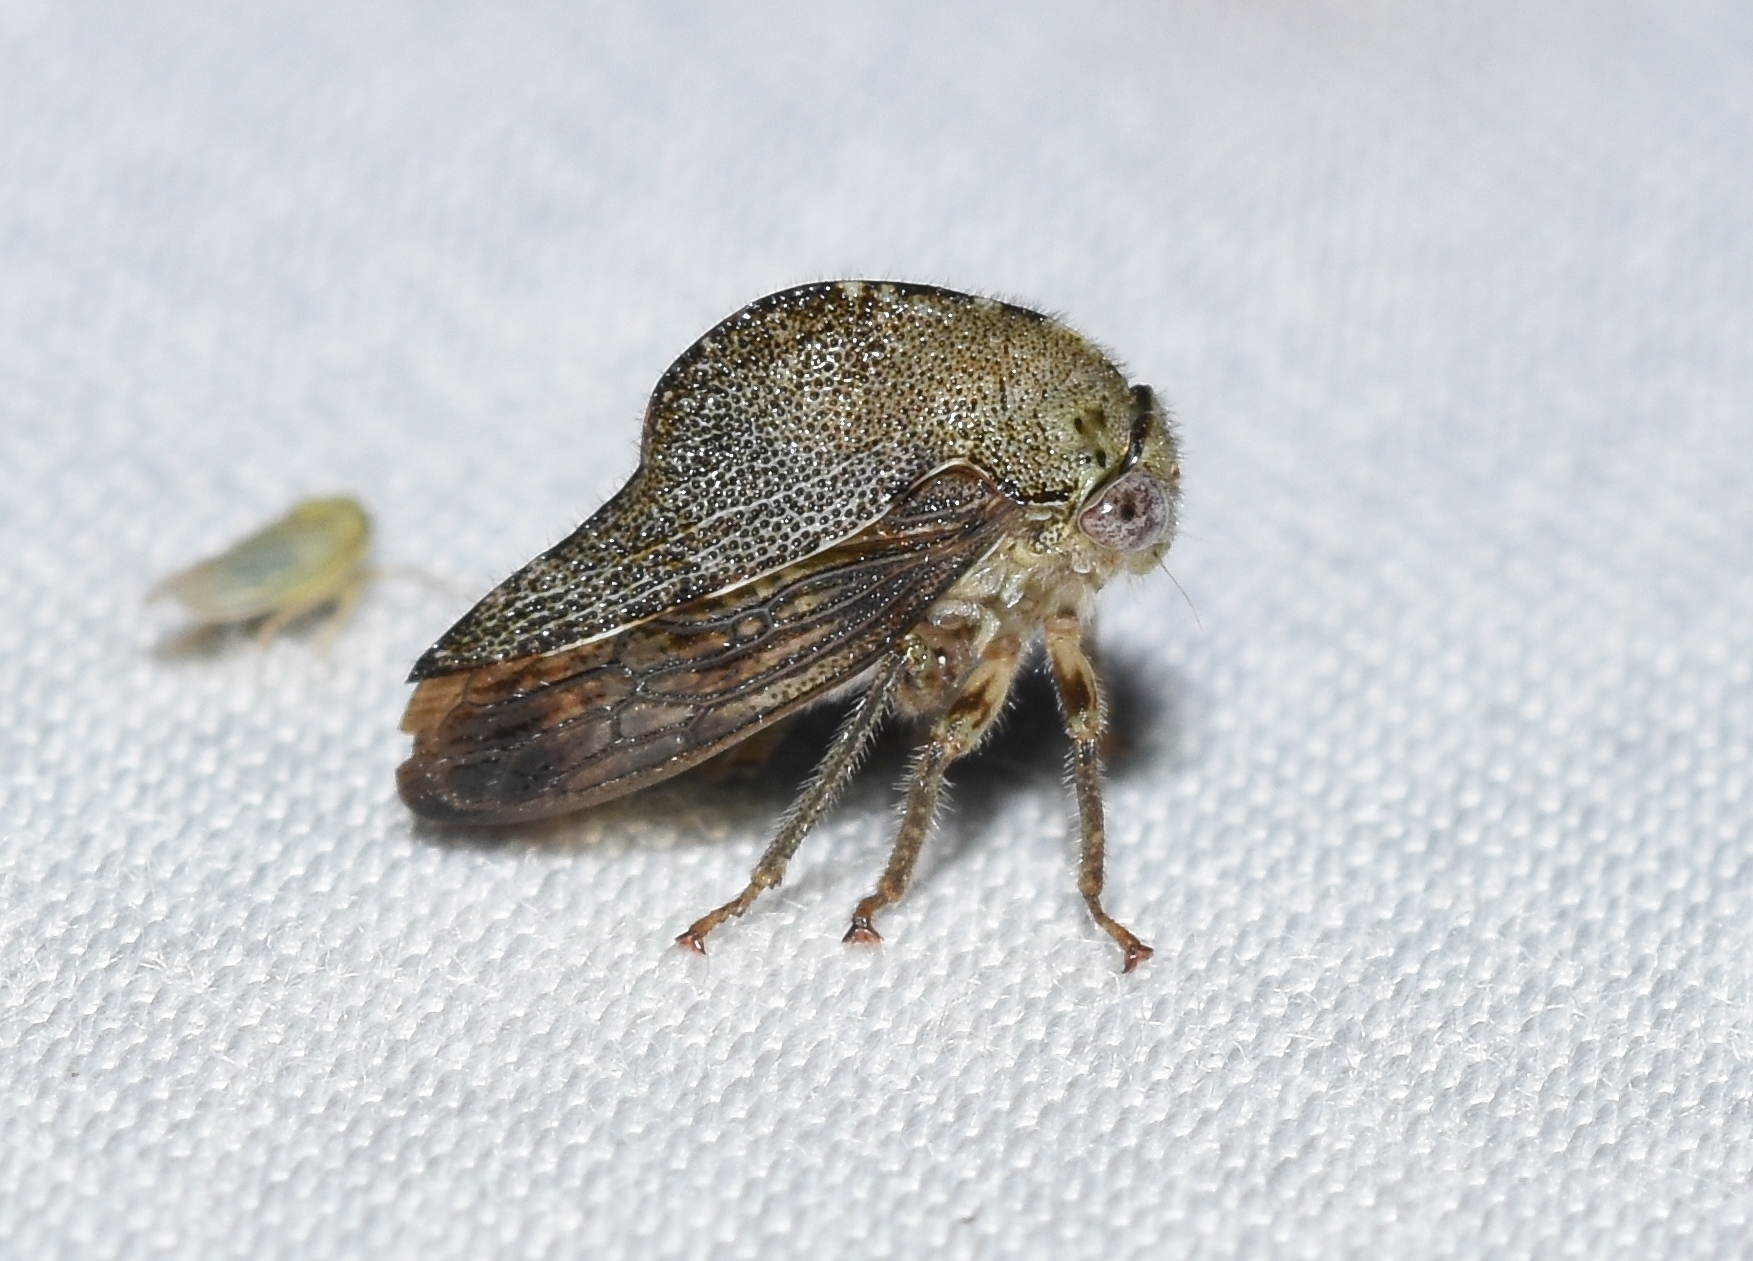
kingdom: Animalia
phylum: Arthropoda
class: Insecta
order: Hemiptera
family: Membracidae
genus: Telamona
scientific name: Telamona reclivata
